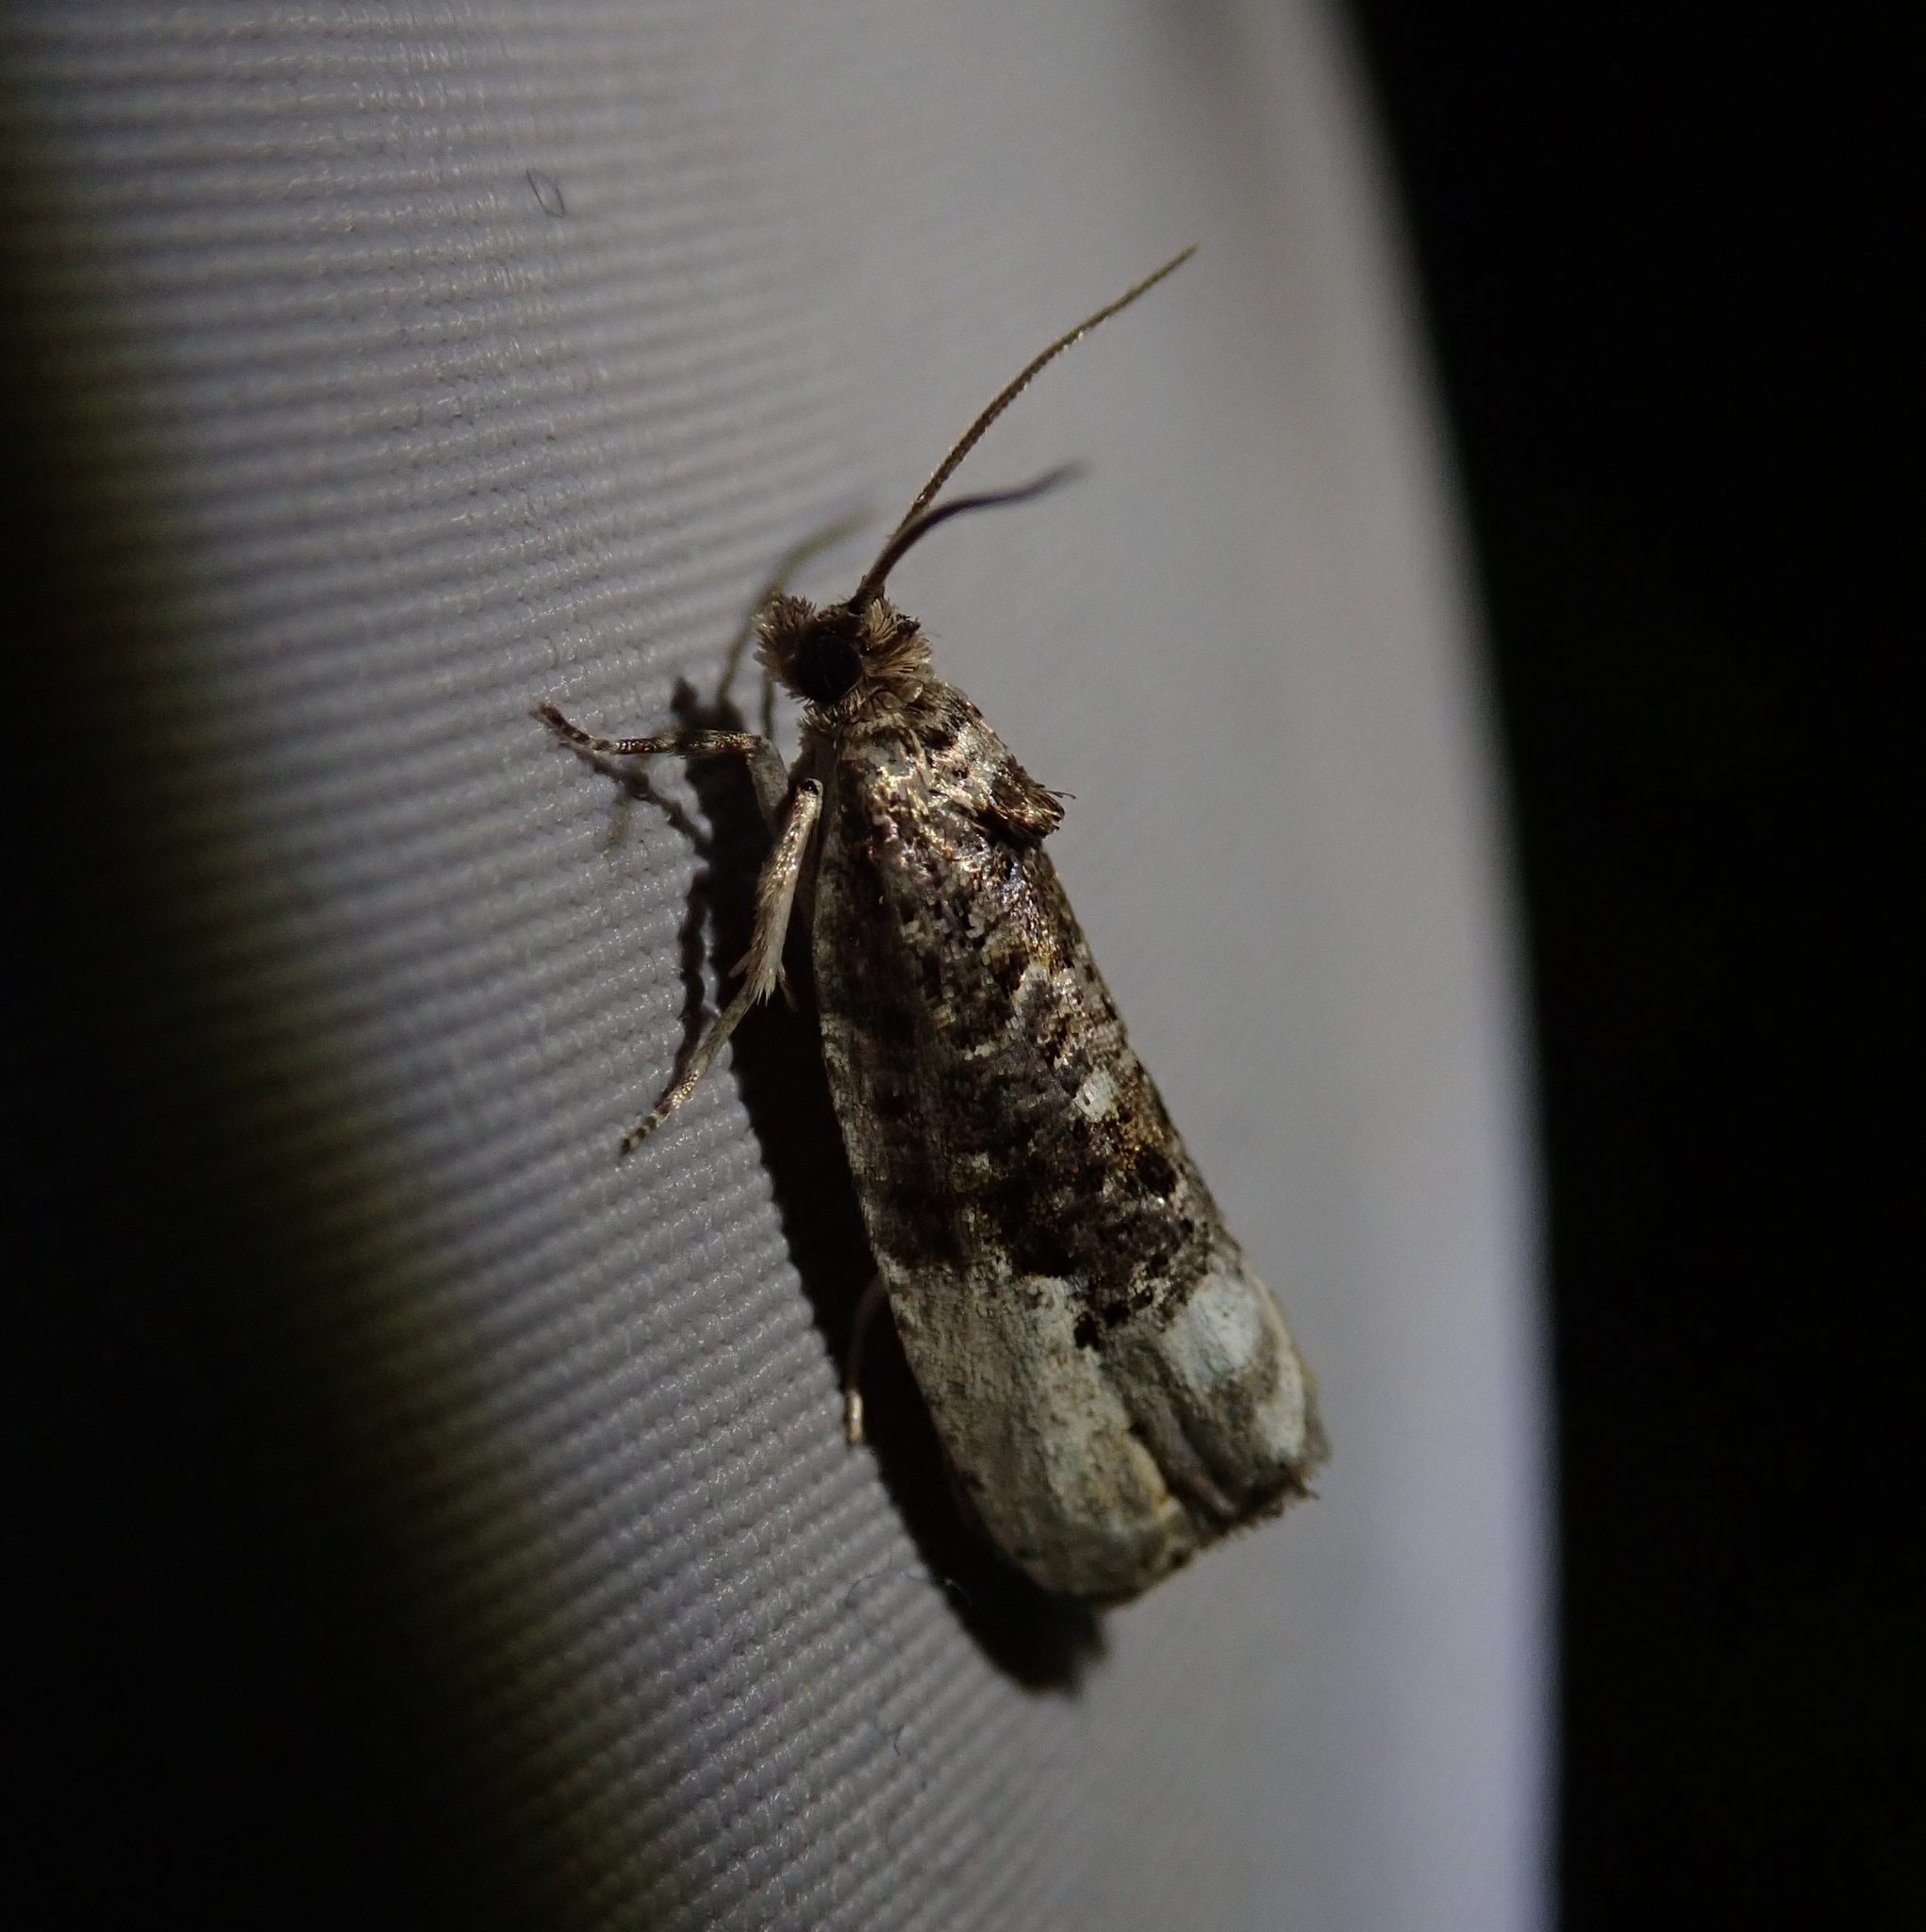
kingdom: Animalia
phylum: Arthropoda
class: Insecta
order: Lepidoptera
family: Tortricidae
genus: Hedya
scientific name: Hedya nubiferana
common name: Marbled orchard tortrix
